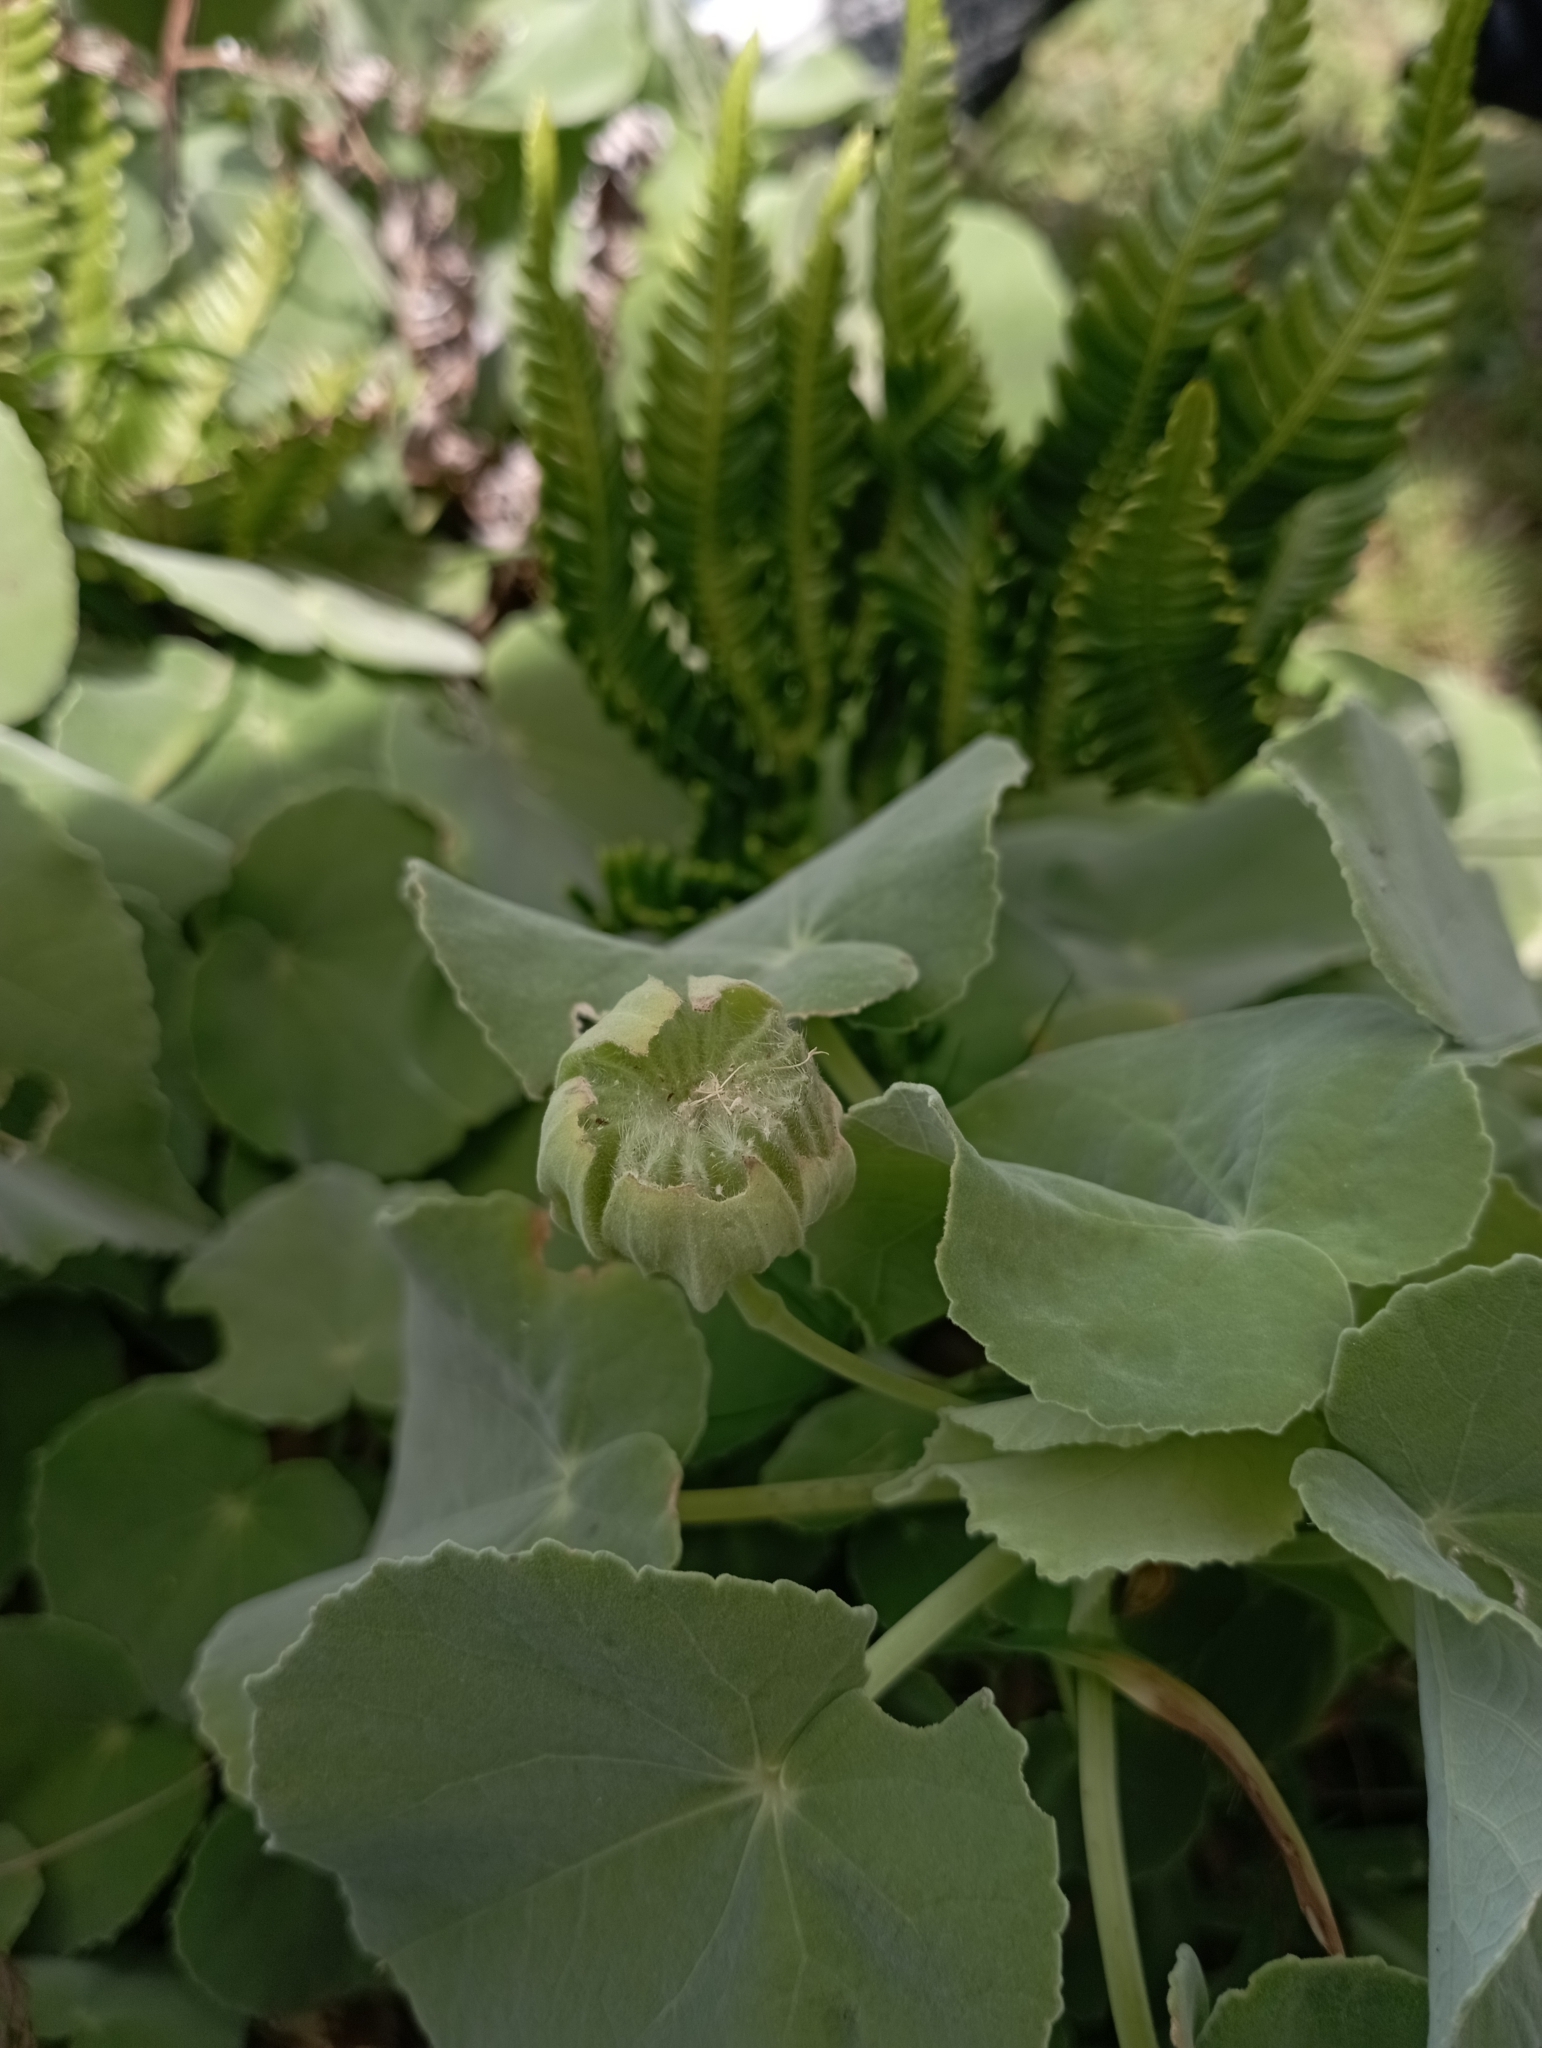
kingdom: Plantae
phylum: Tracheophyta
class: Magnoliopsida
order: Malvales
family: Malvaceae
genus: Abutilon
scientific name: Abutilon indicum
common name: Indian abutilon
